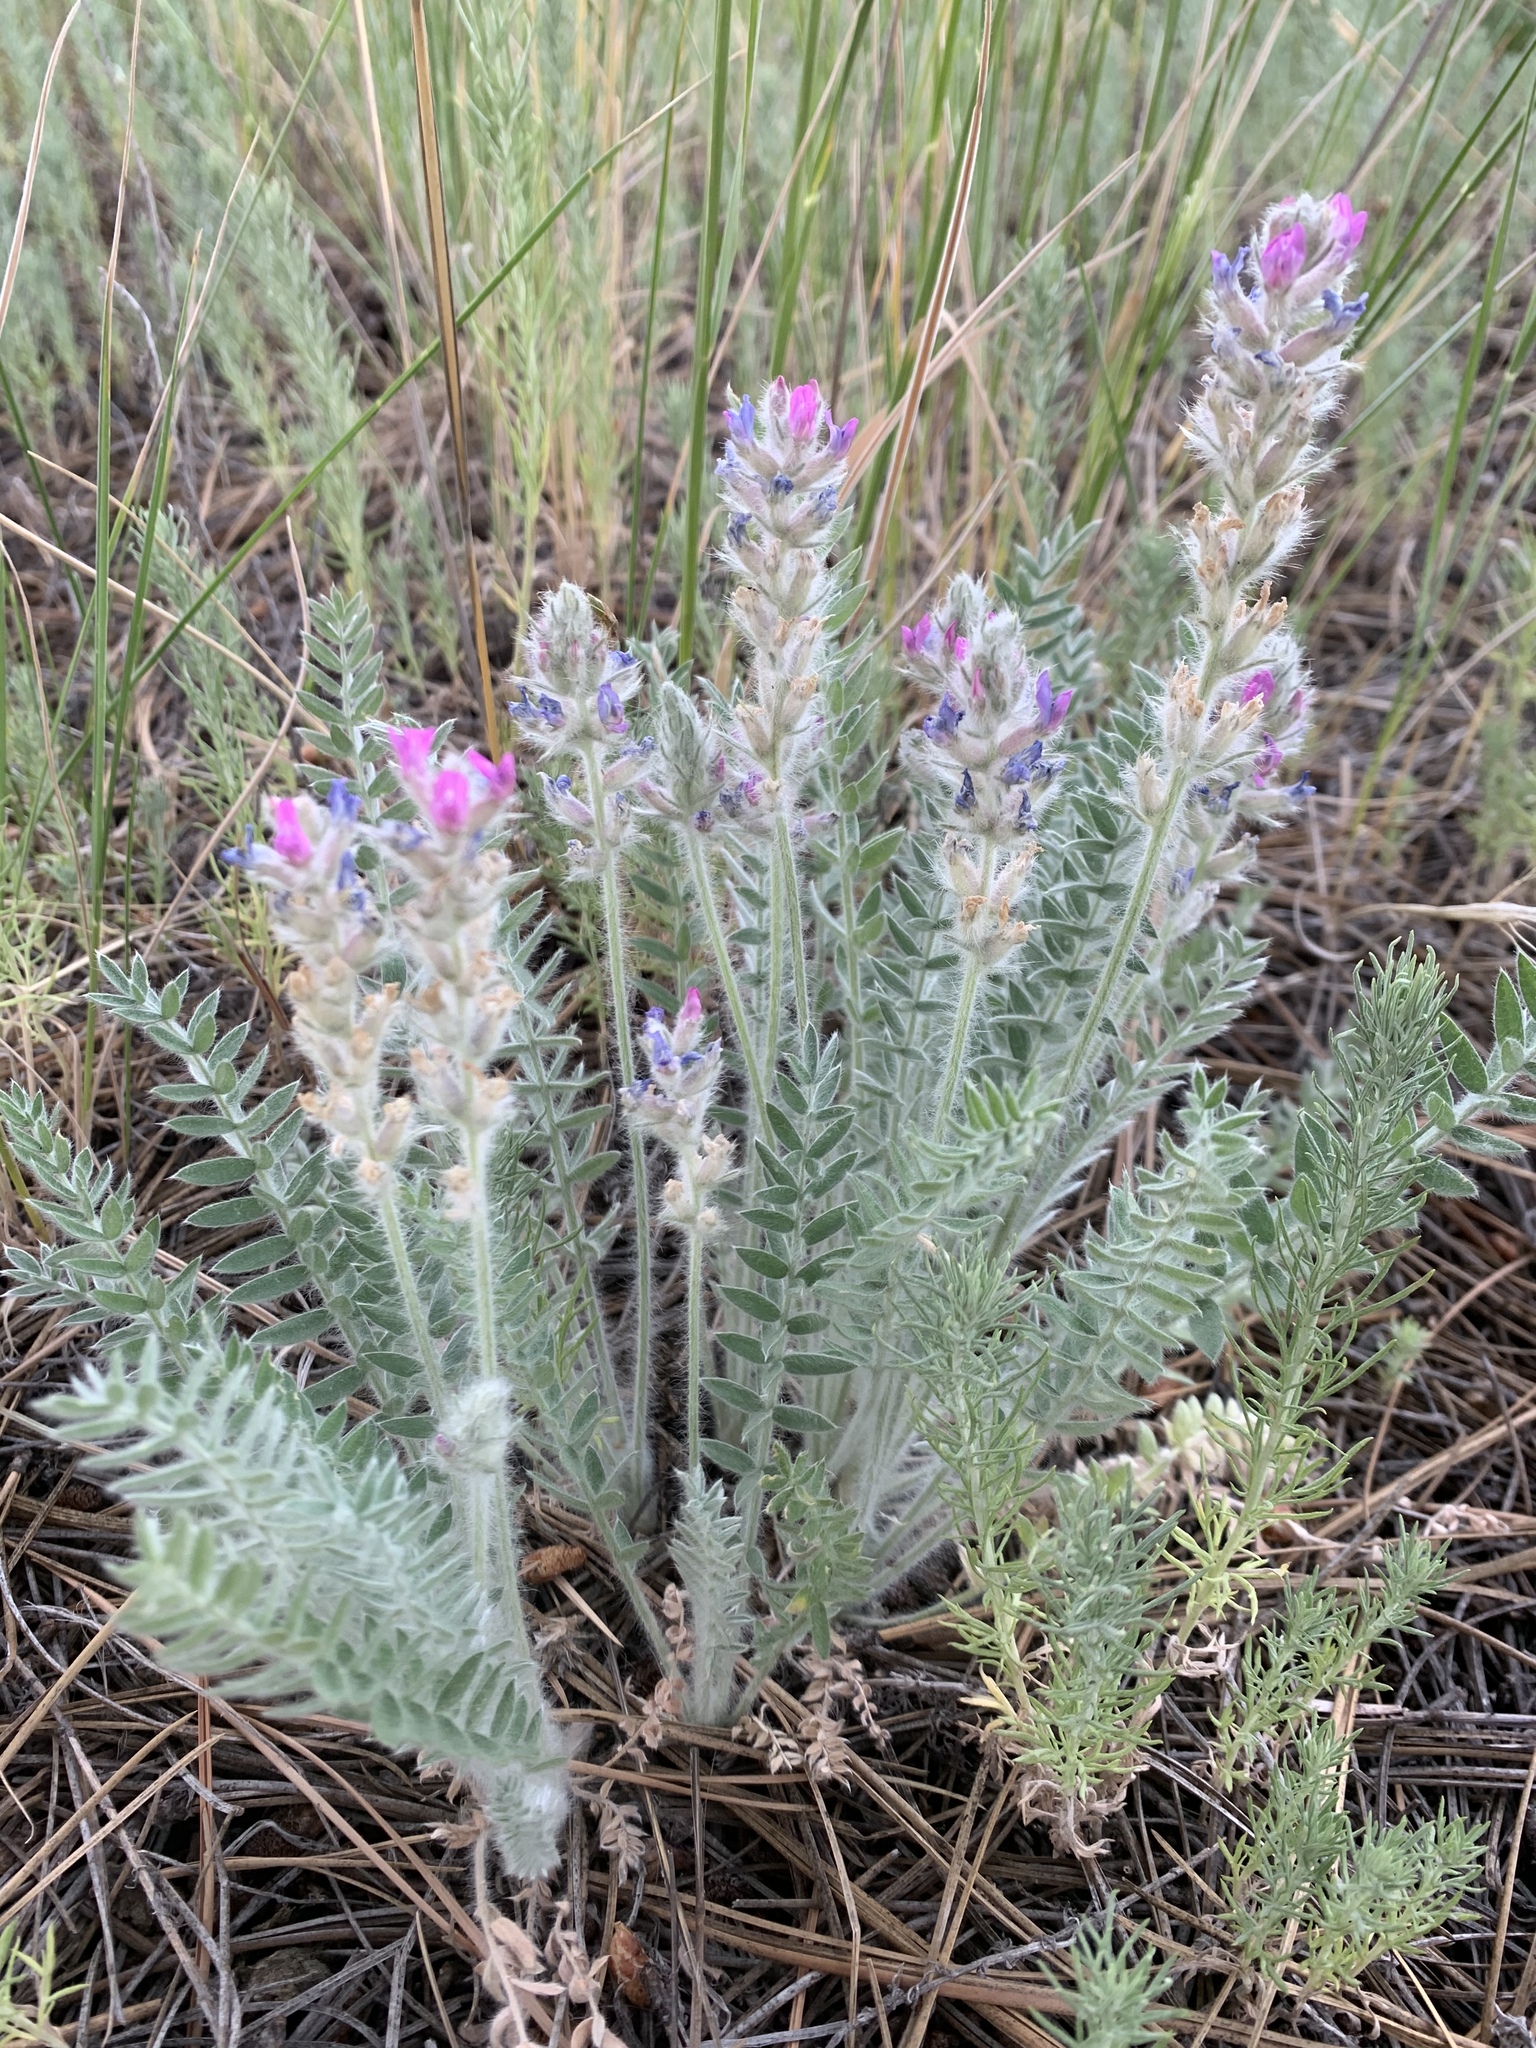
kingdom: Plantae
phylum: Tracheophyta
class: Magnoliopsida
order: Fabales
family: Fabaceae
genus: Oxytropis
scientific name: Oxytropis splendens
